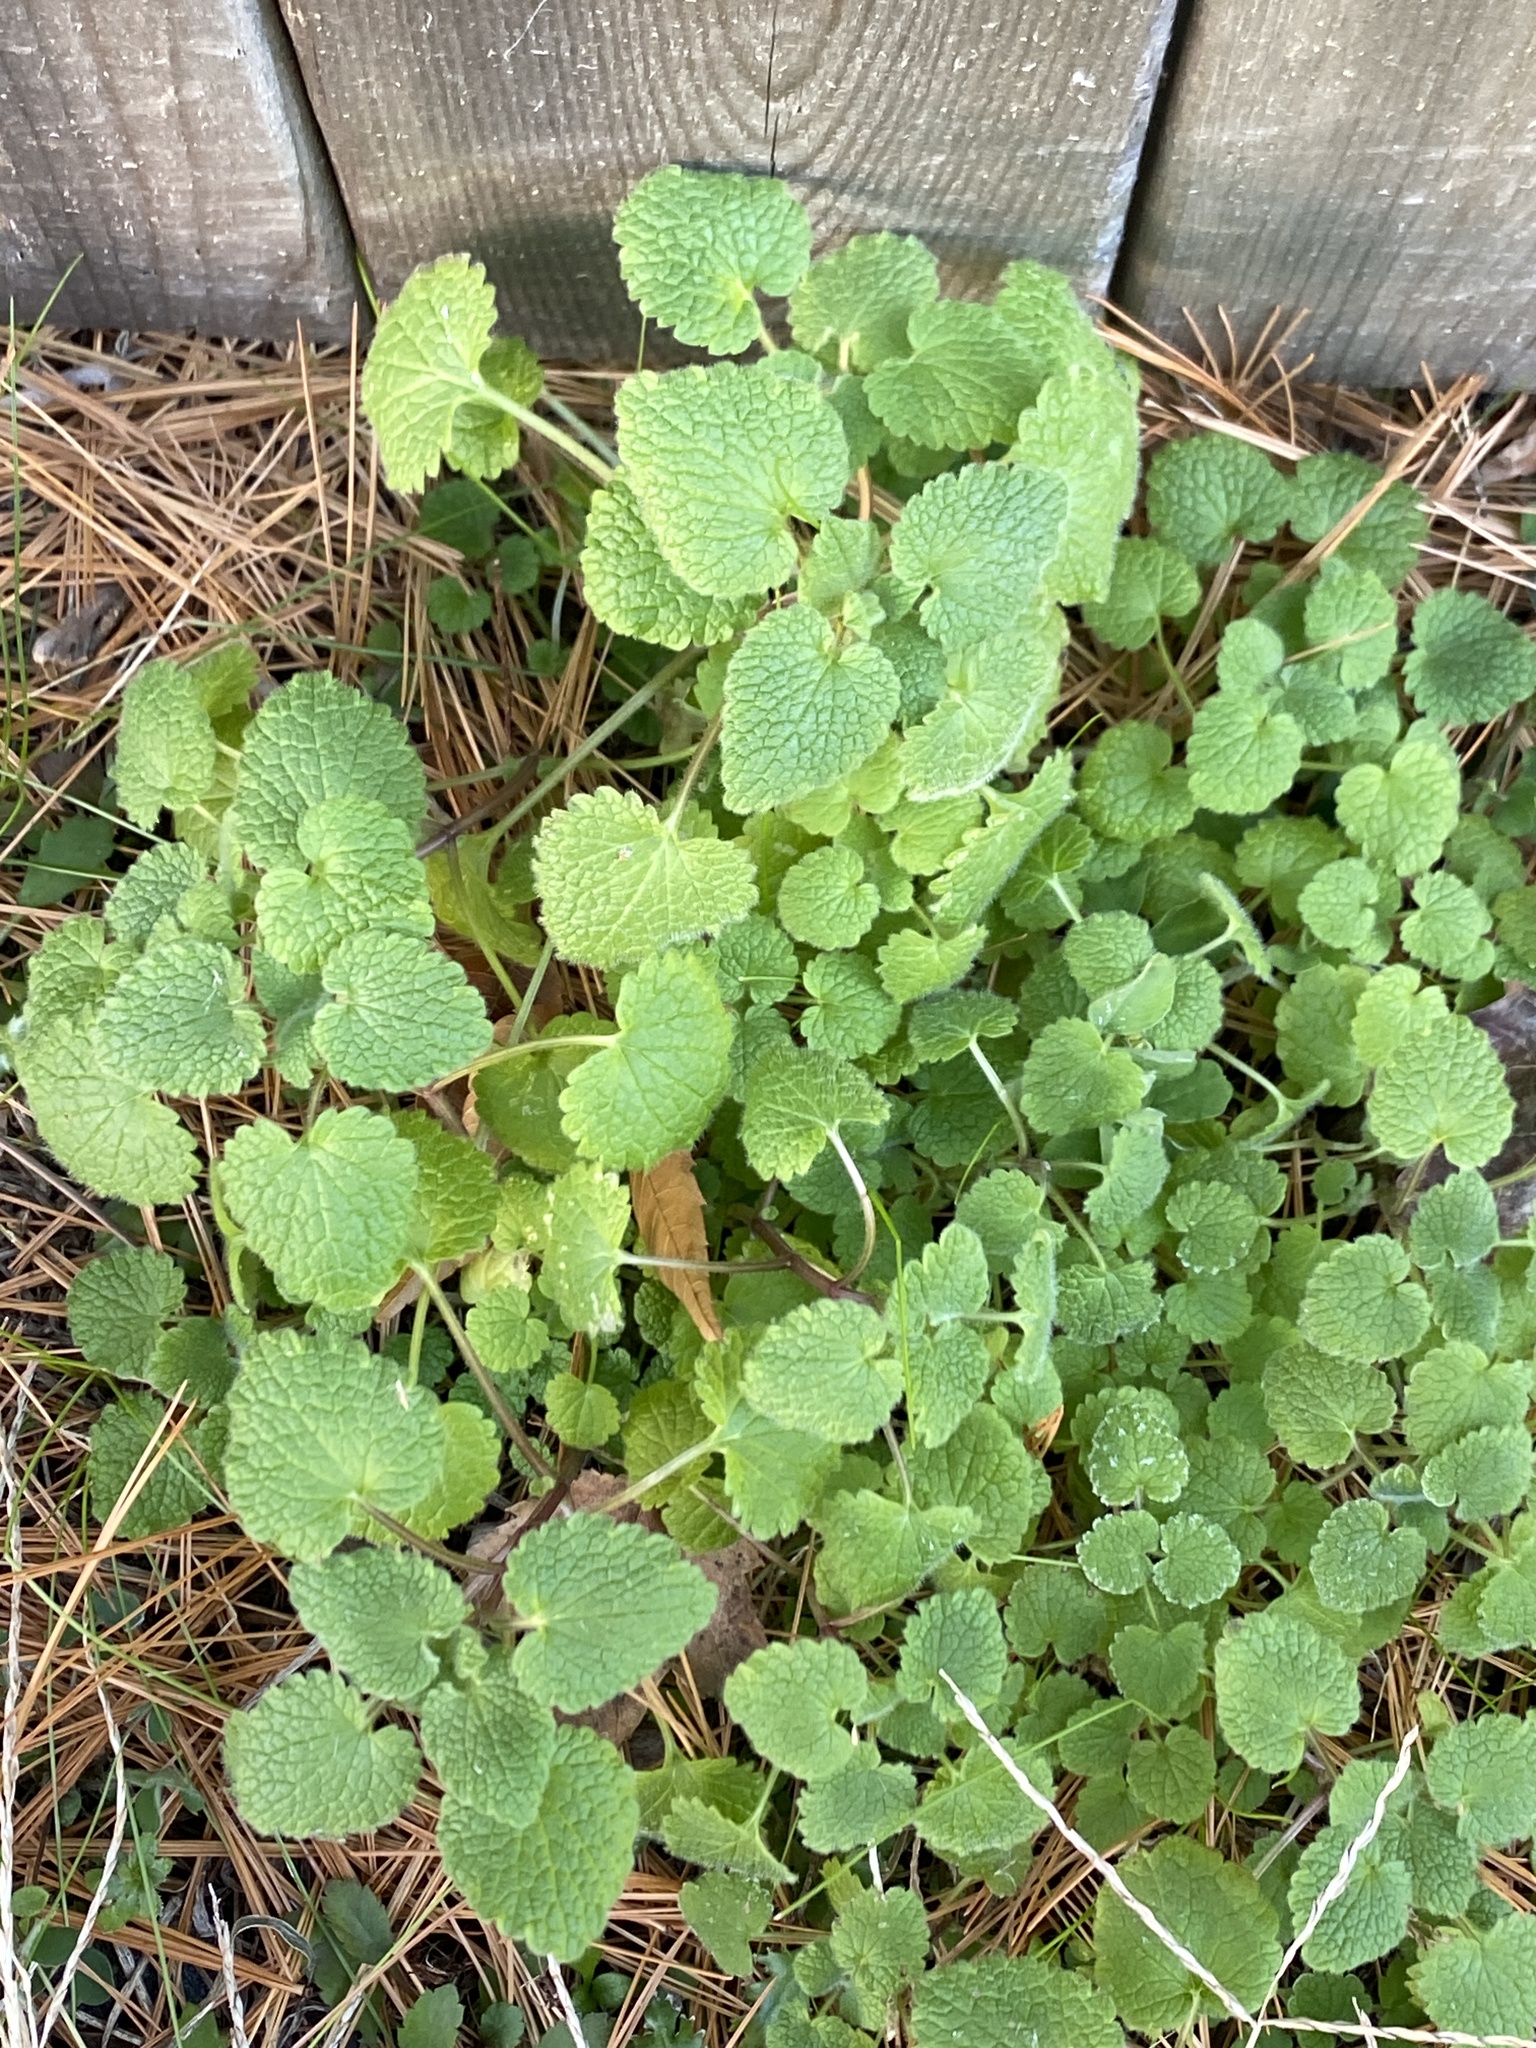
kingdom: Plantae
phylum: Tracheophyta
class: Magnoliopsida
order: Lamiales
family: Lamiaceae
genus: Lamium
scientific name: Lamium purpureum
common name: Red dead-nettle
